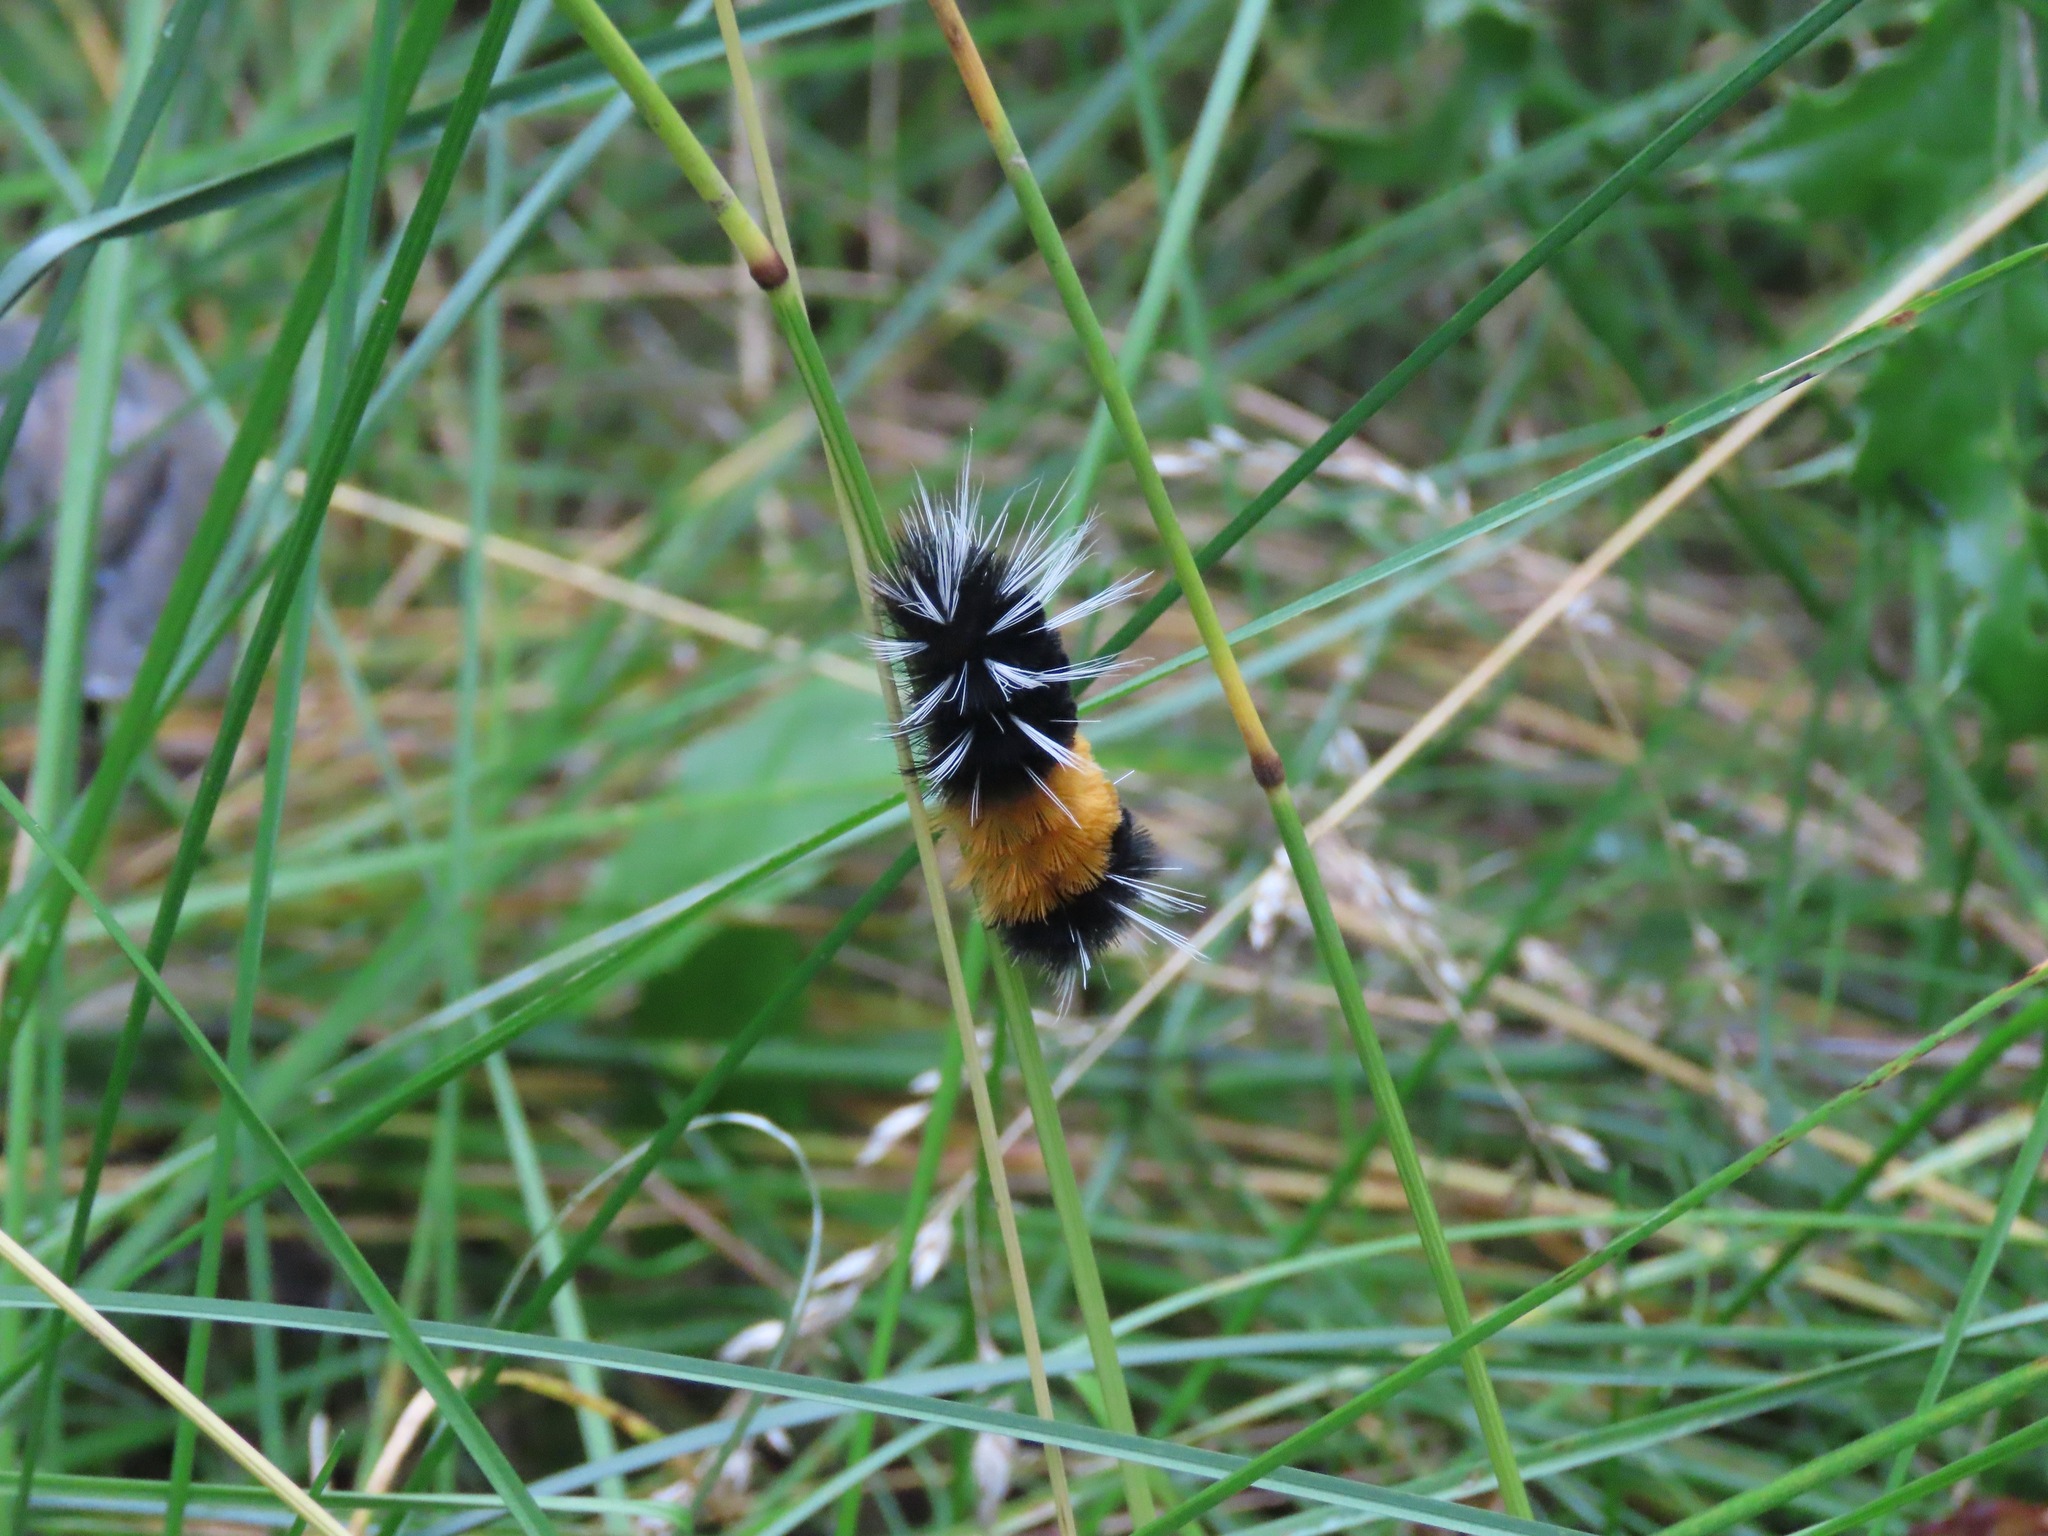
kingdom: Animalia
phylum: Arthropoda
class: Insecta
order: Lepidoptera
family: Erebidae
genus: Lophocampa
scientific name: Lophocampa maculata
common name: Spotted tussock moth
